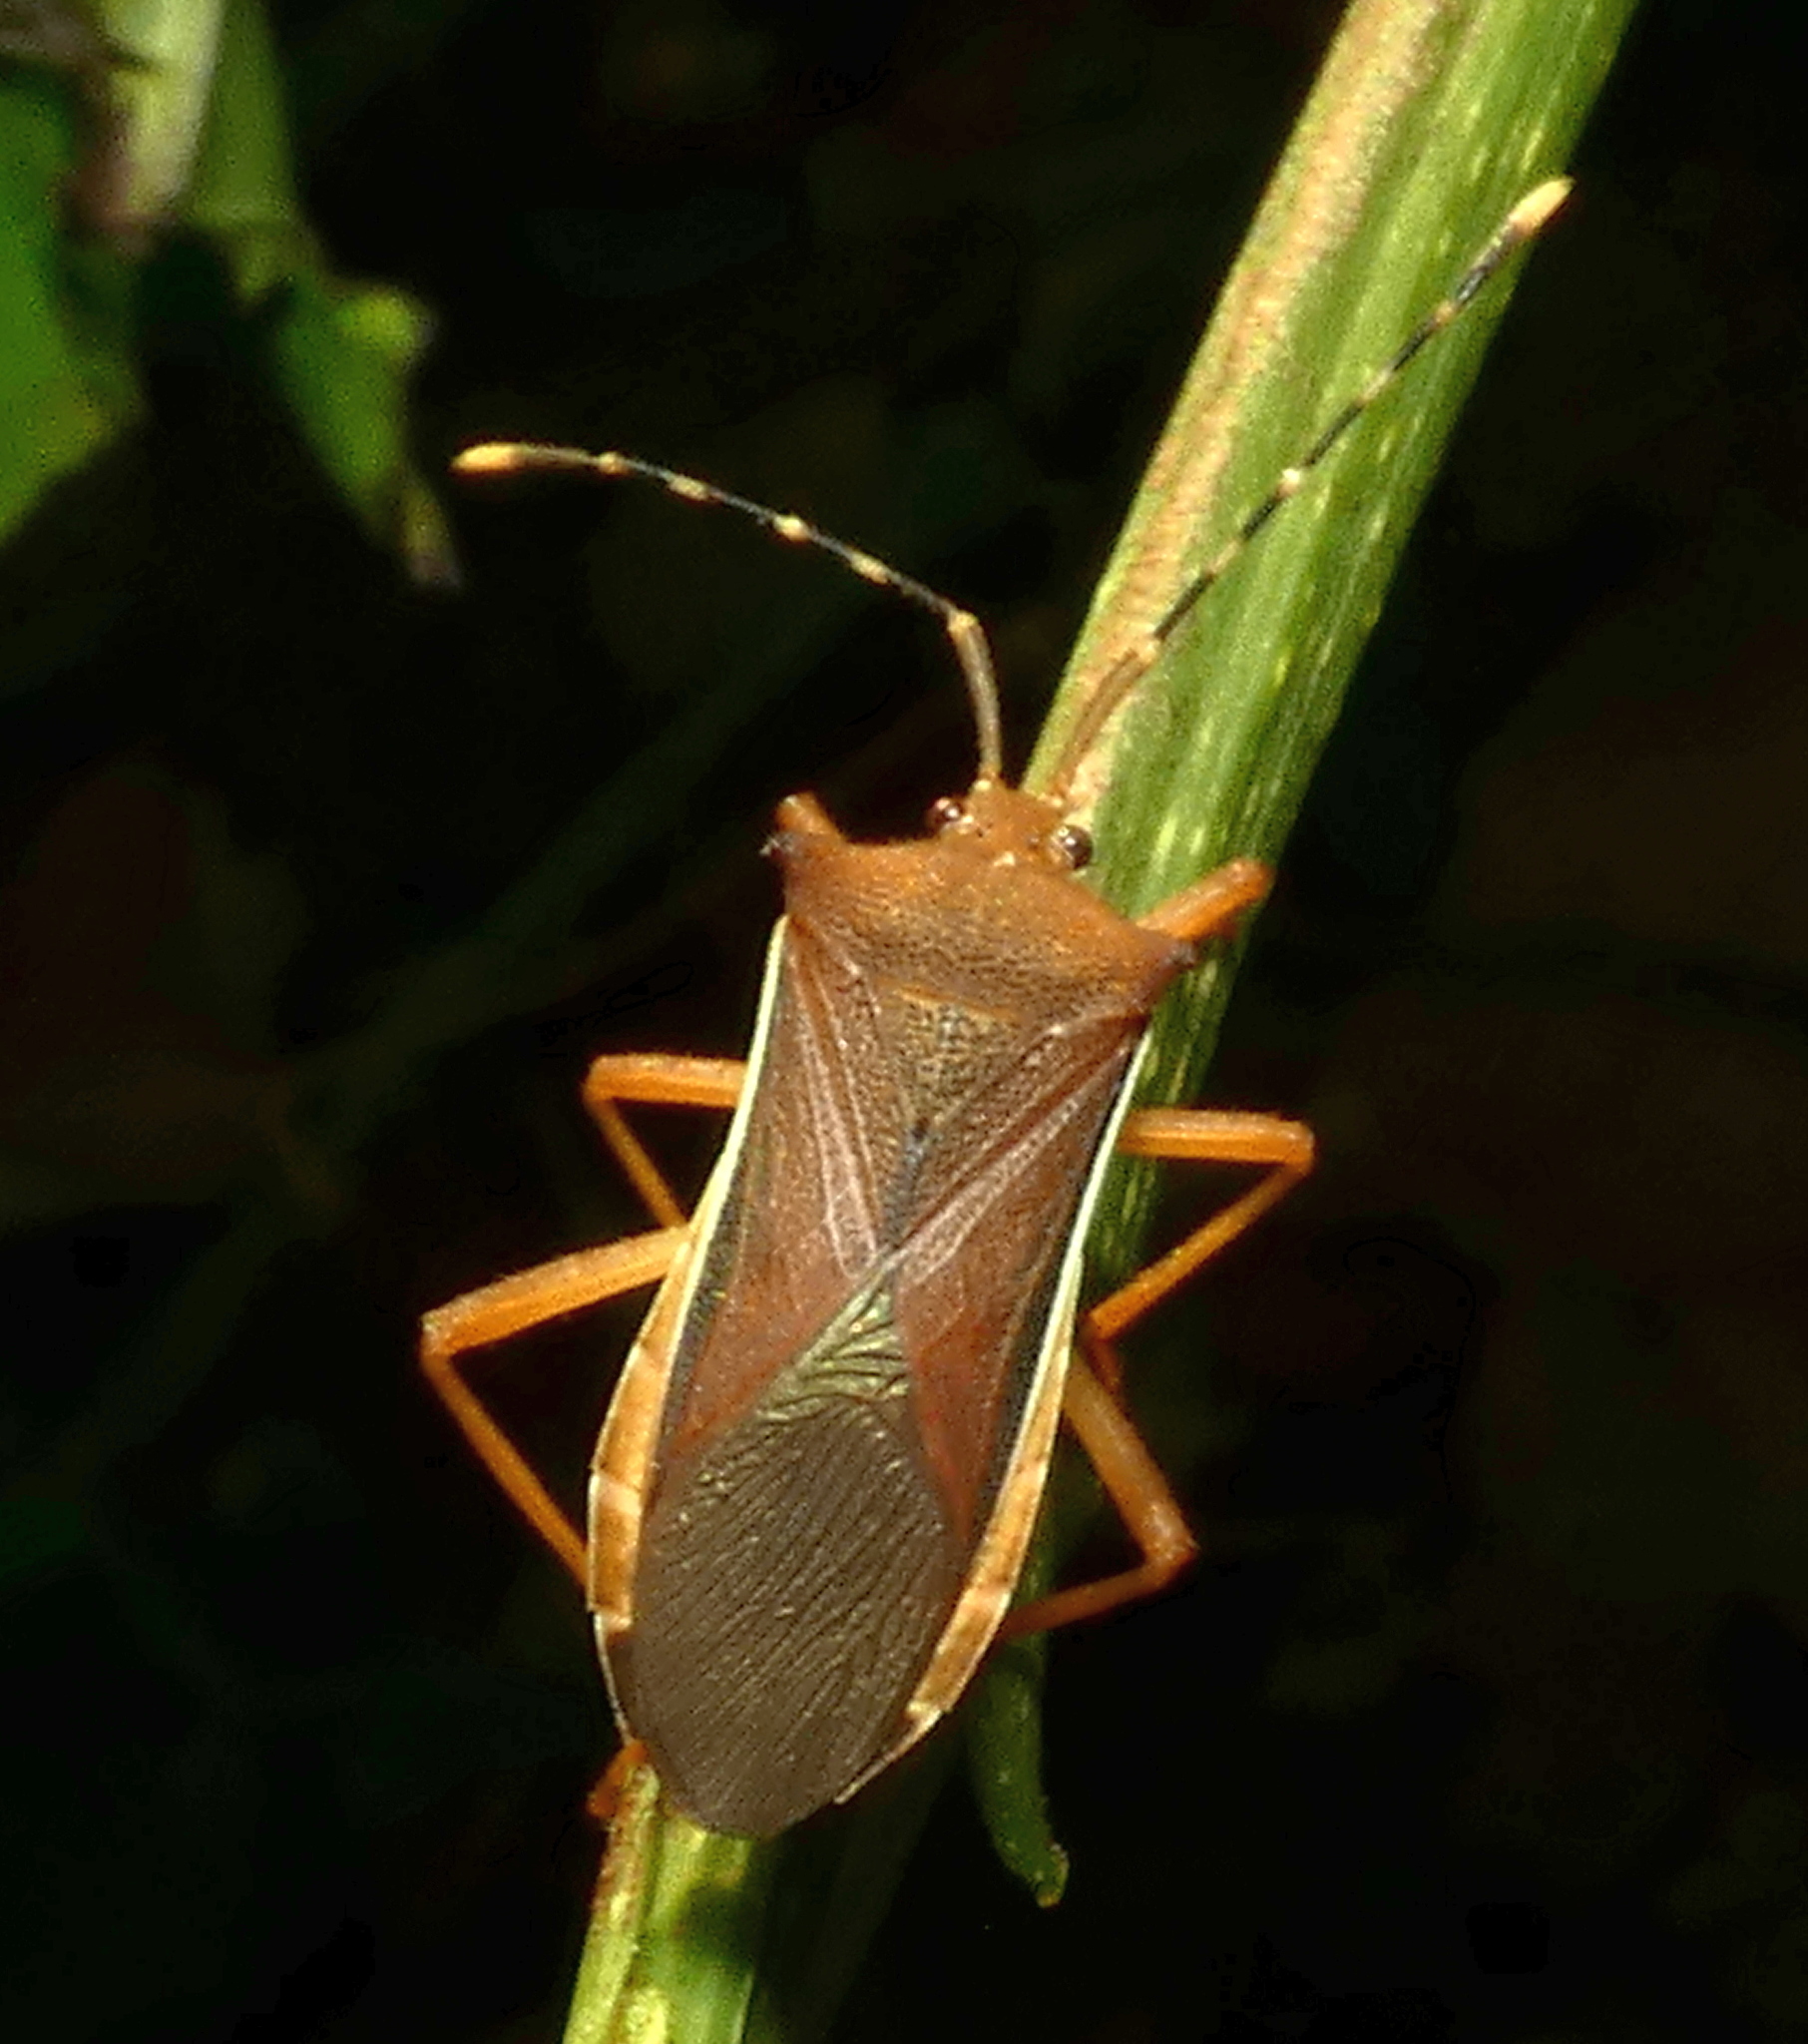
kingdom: Animalia
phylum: Arthropoda
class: Insecta
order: Hemiptera
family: Coreidae
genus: Anasa
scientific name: Anasa varicornis
